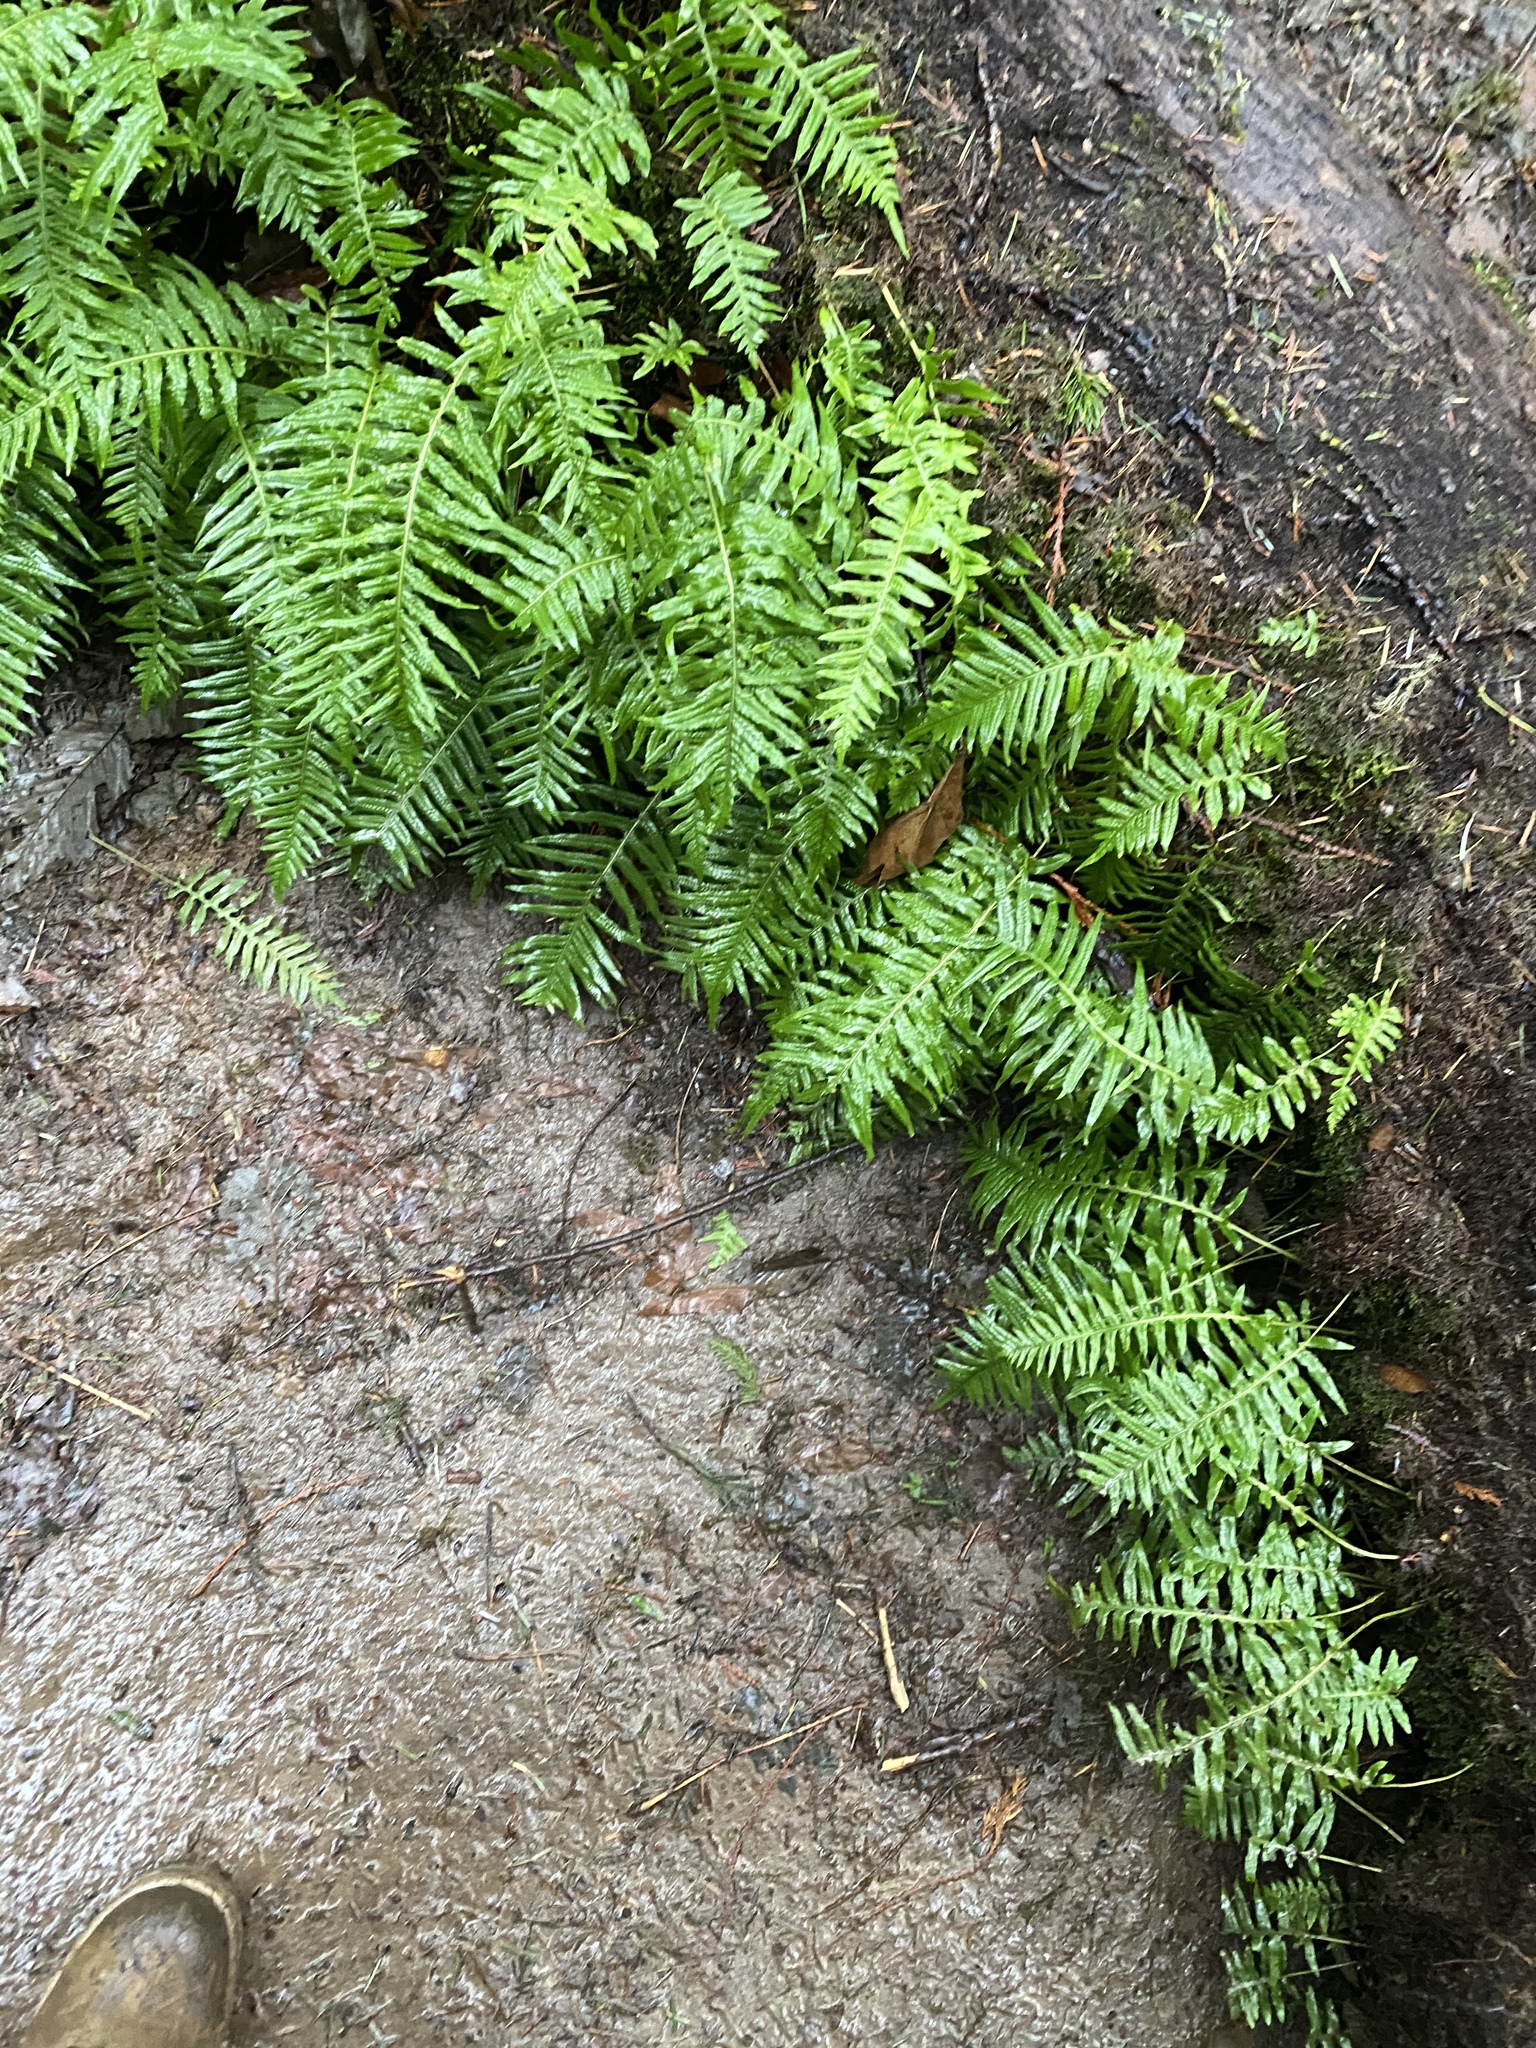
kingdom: Plantae
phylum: Tracheophyta
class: Polypodiopsida
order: Polypodiales
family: Polypodiaceae
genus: Polypodium
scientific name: Polypodium glycyrrhiza
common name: Licorice fern
